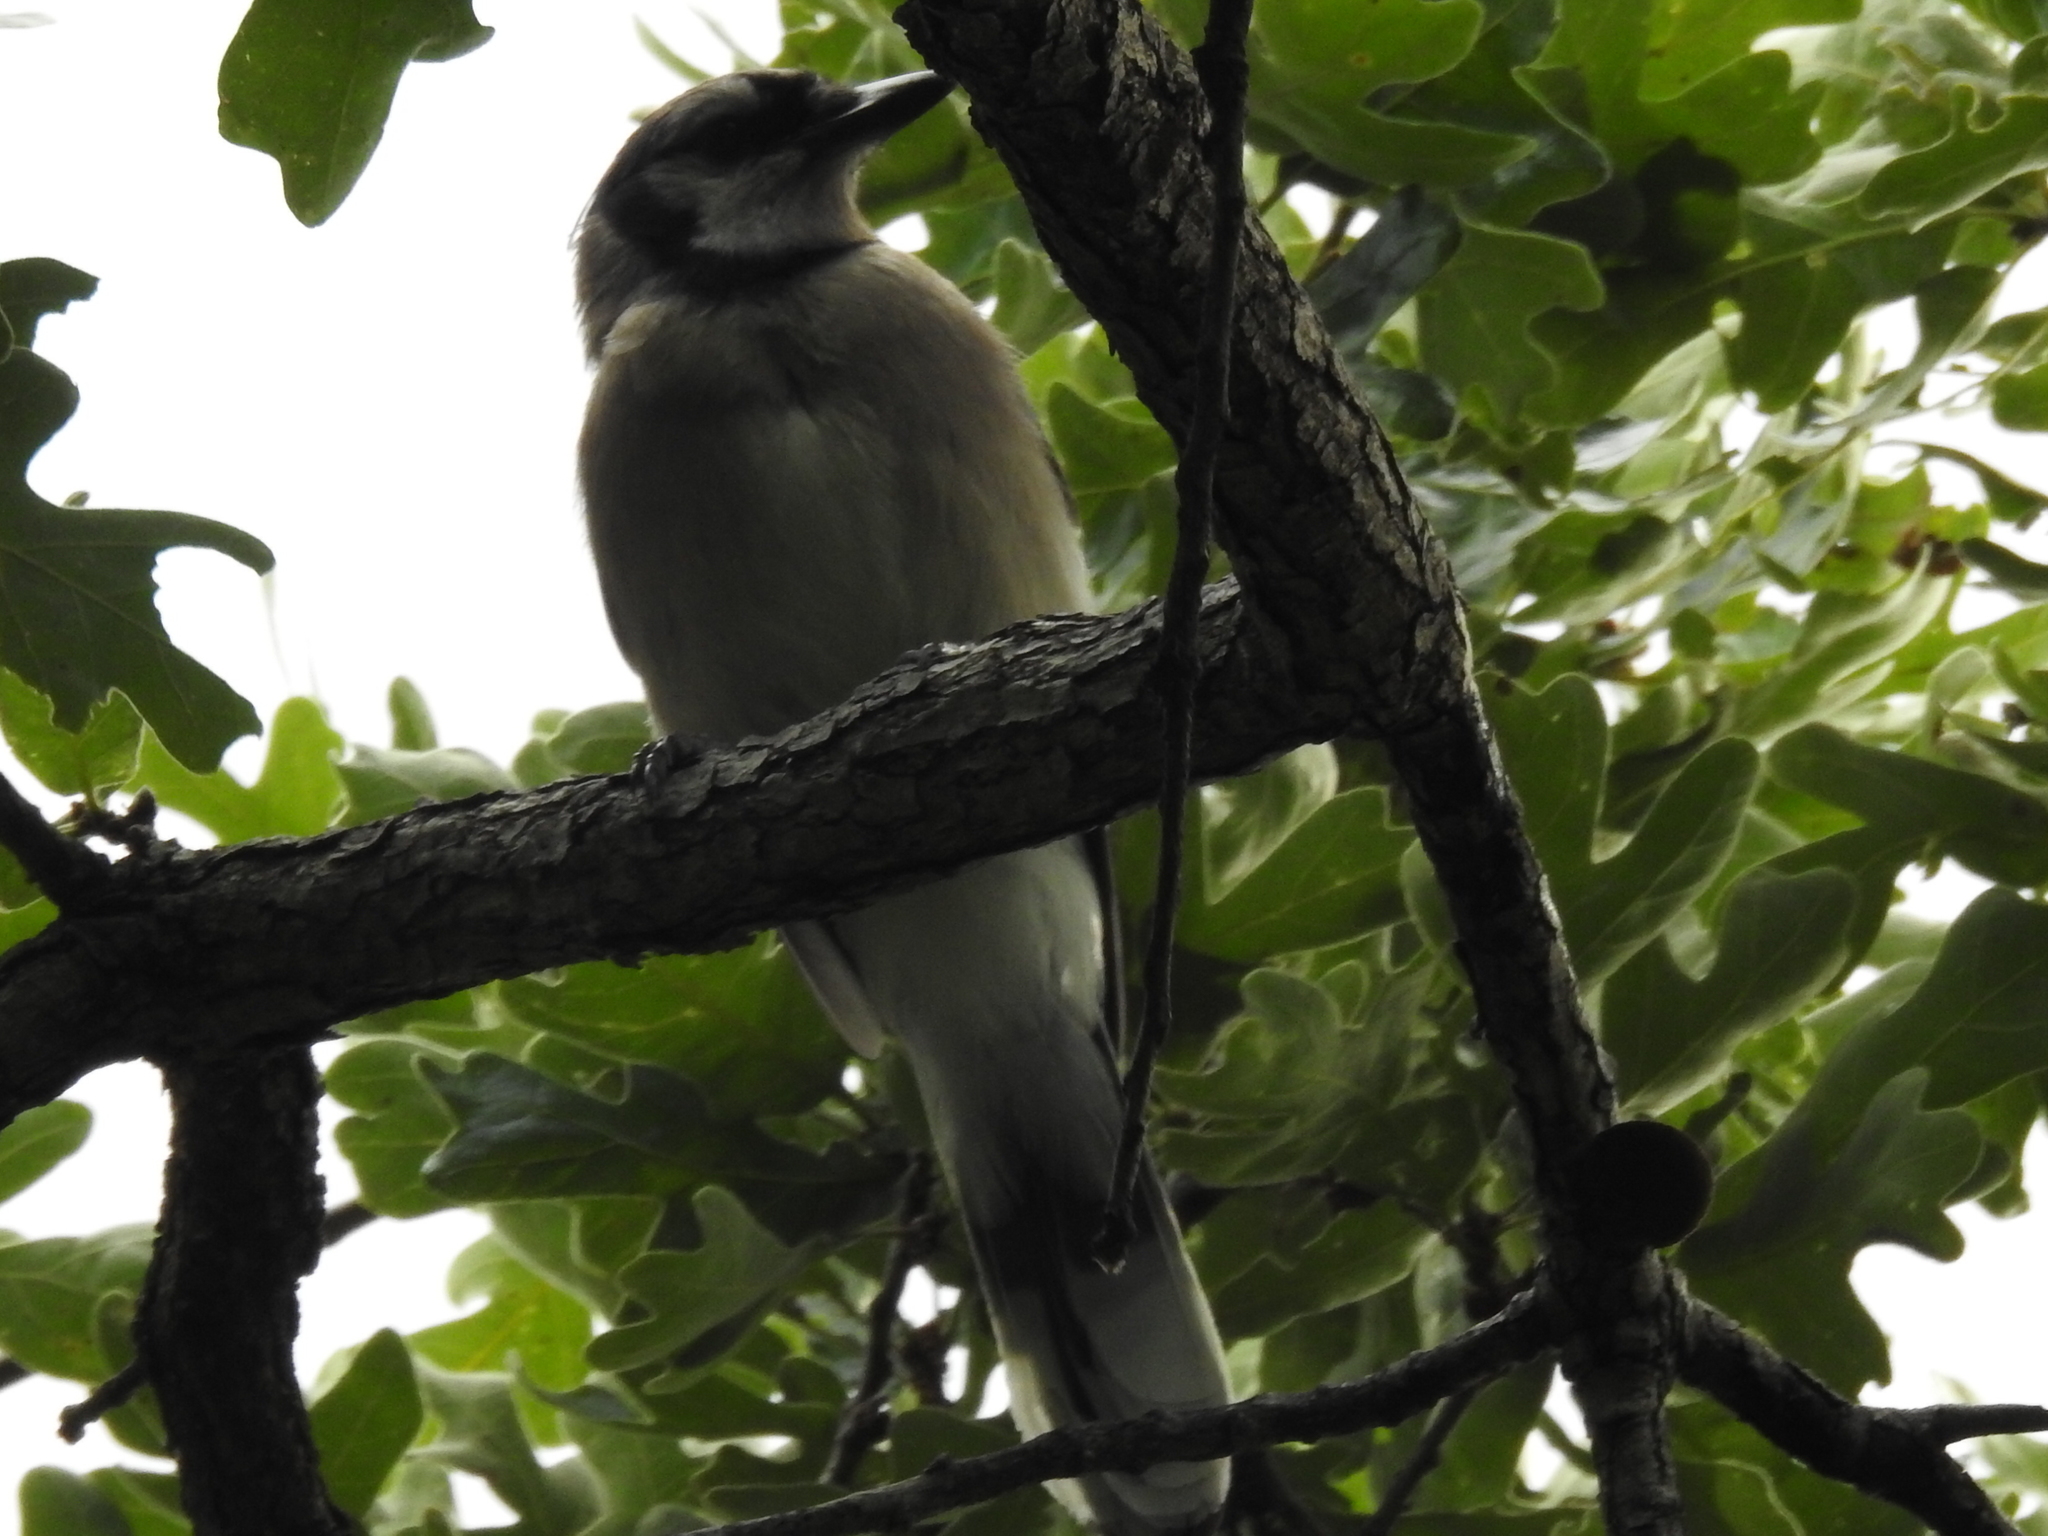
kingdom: Animalia
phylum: Chordata
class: Aves
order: Passeriformes
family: Corvidae
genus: Cyanocitta
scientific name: Cyanocitta cristata
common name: Blue jay
